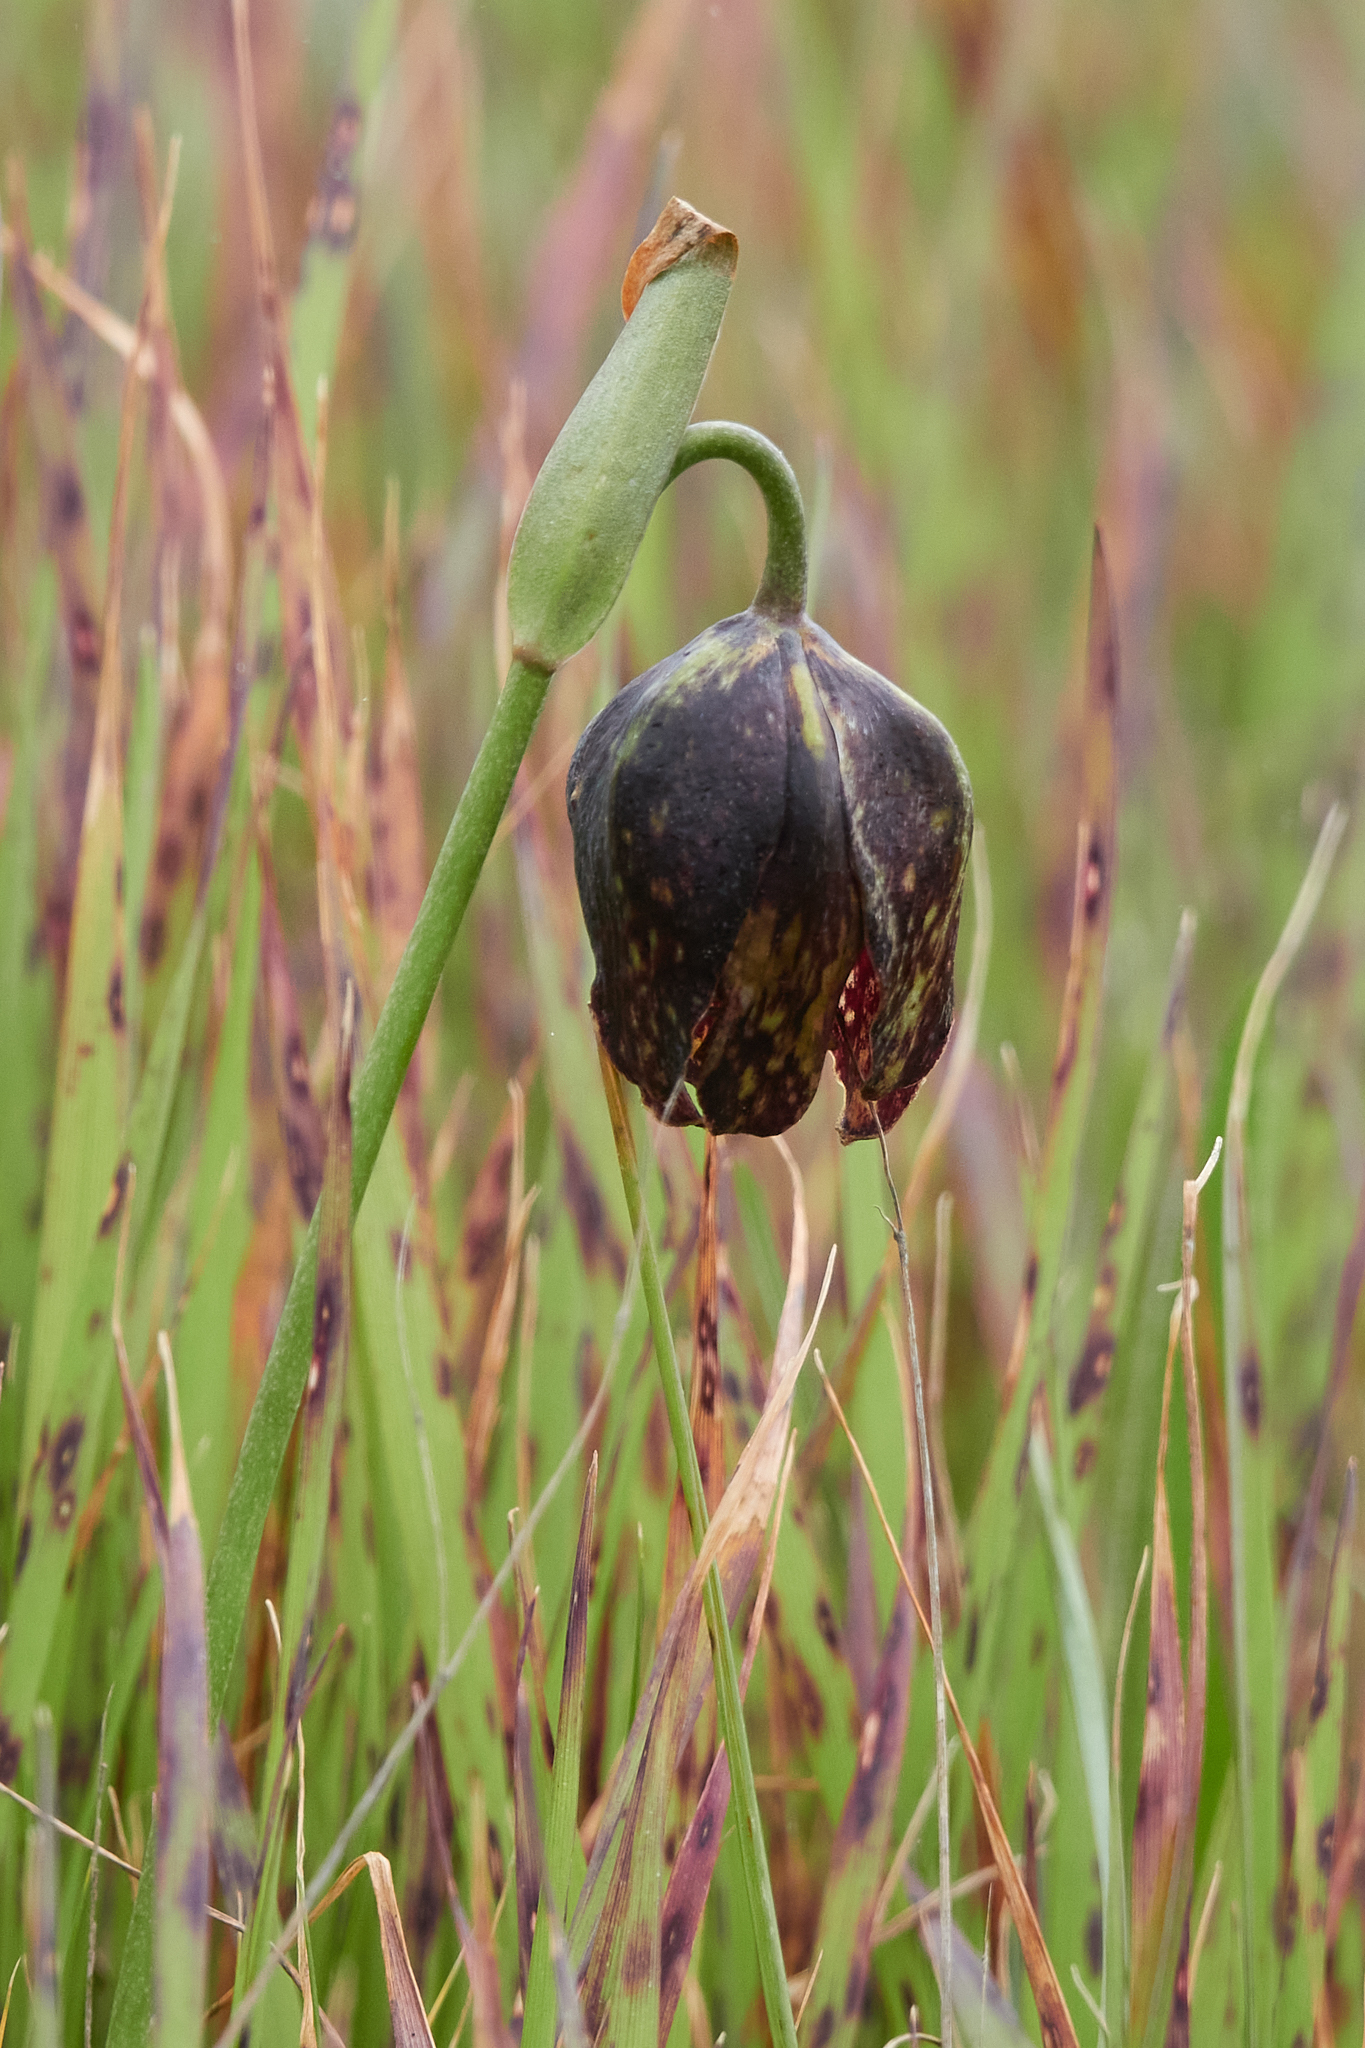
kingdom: Plantae
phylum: Tracheophyta
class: Liliopsida
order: Liliales
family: Liliaceae
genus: Fritillaria
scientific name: Fritillaria affinis
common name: Ojai fritillary
